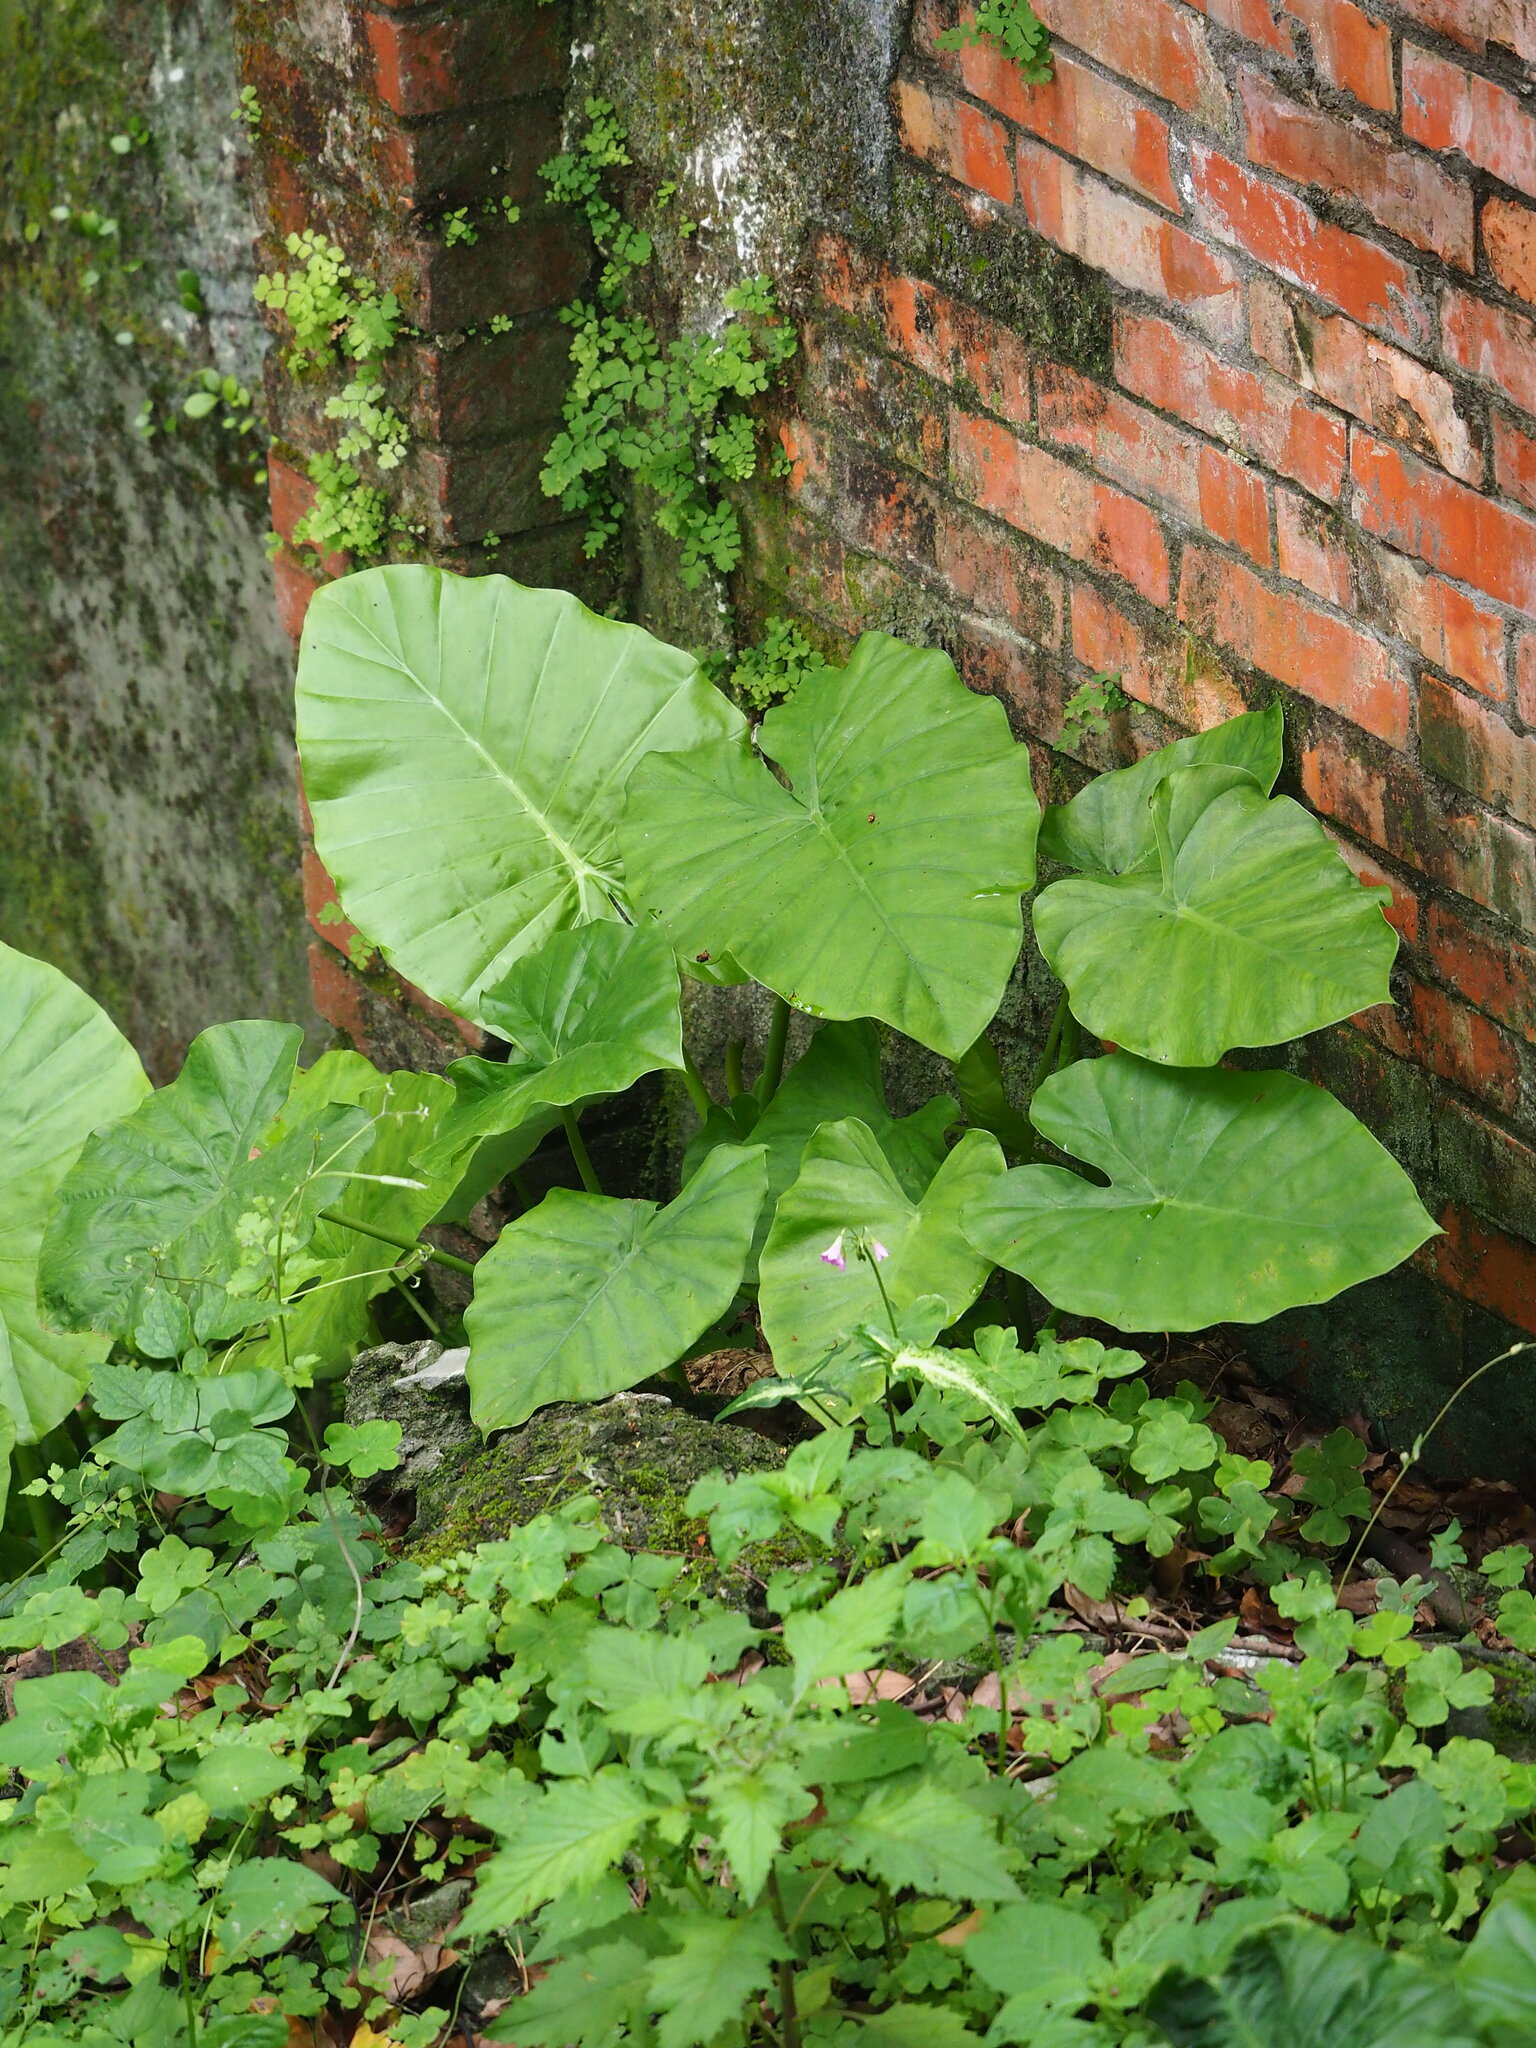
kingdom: Plantae
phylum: Tracheophyta
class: Liliopsida
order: Alismatales
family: Araceae
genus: Alocasia
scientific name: Alocasia odora
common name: Asian taro
